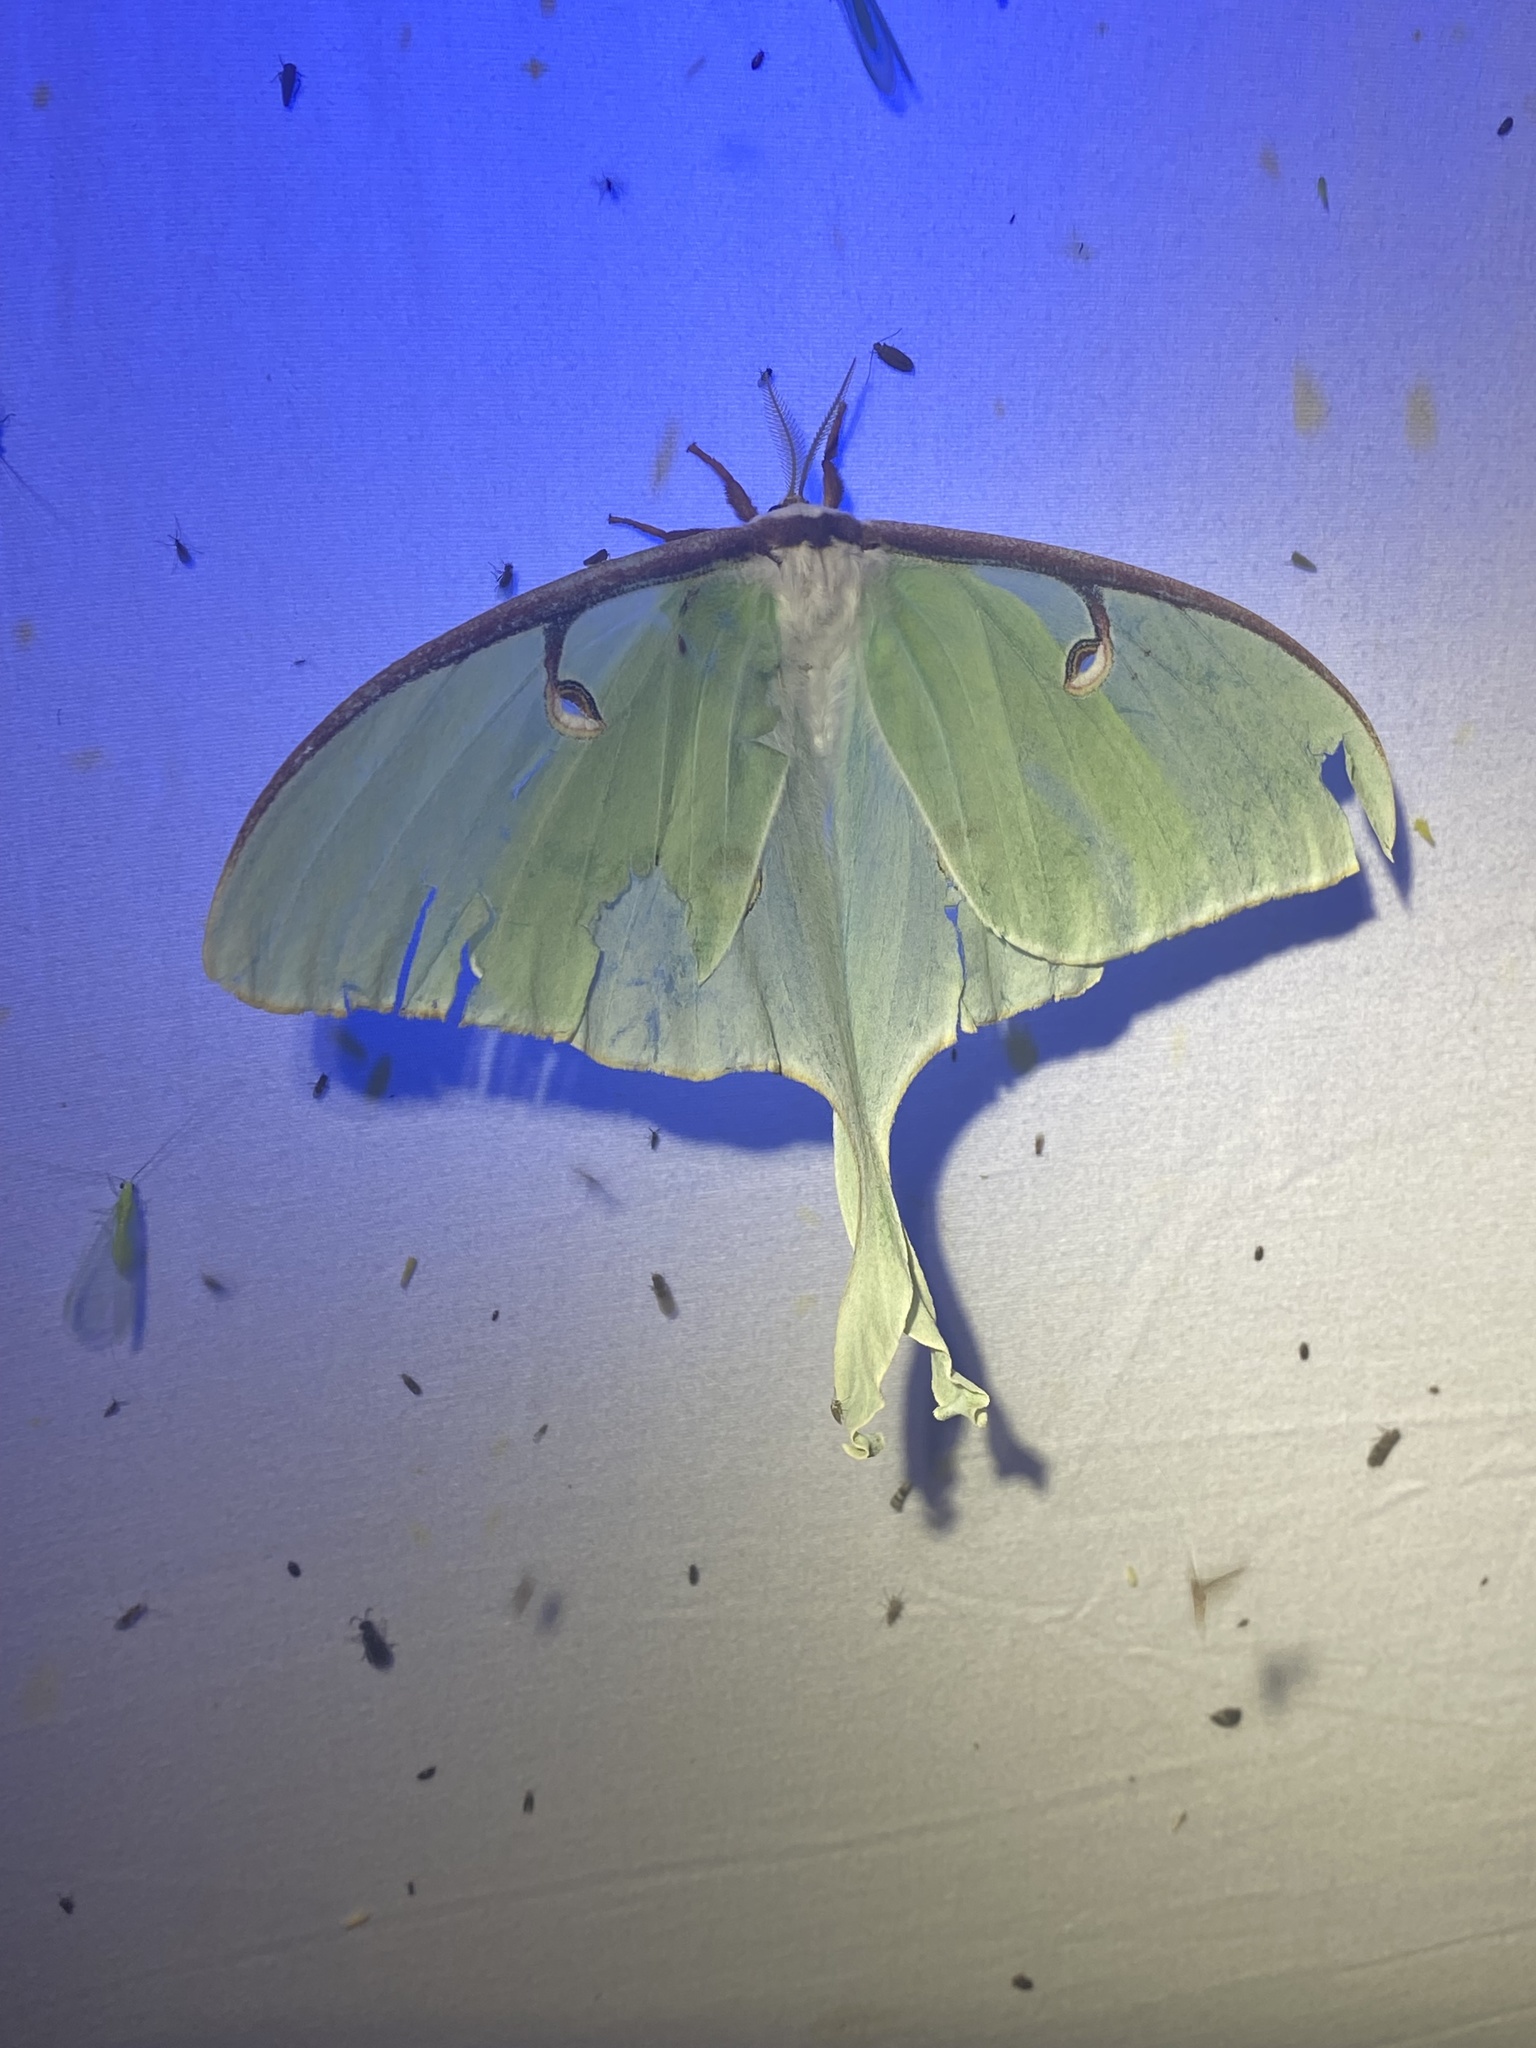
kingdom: Animalia
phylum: Arthropoda
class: Insecta
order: Lepidoptera
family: Saturniidae
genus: Actias
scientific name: Actias luna
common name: Luna moth
